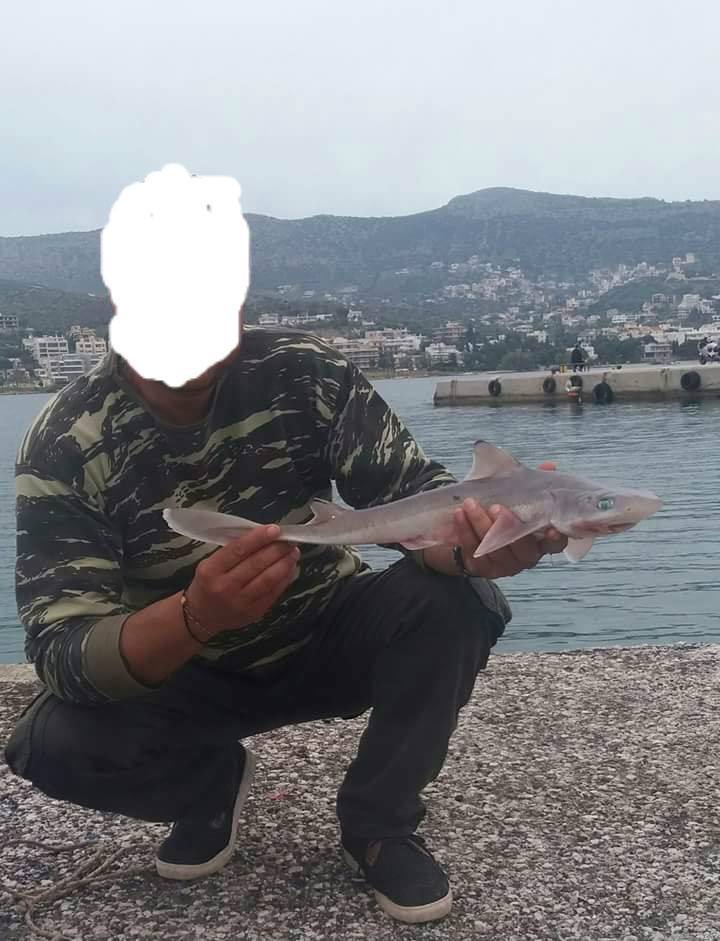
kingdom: Animalia
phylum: Chordata
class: Elasmobranchii
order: Squaliformes
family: Squalidae
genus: Squalus
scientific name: Squalus blainville
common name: Longnose spurdog
